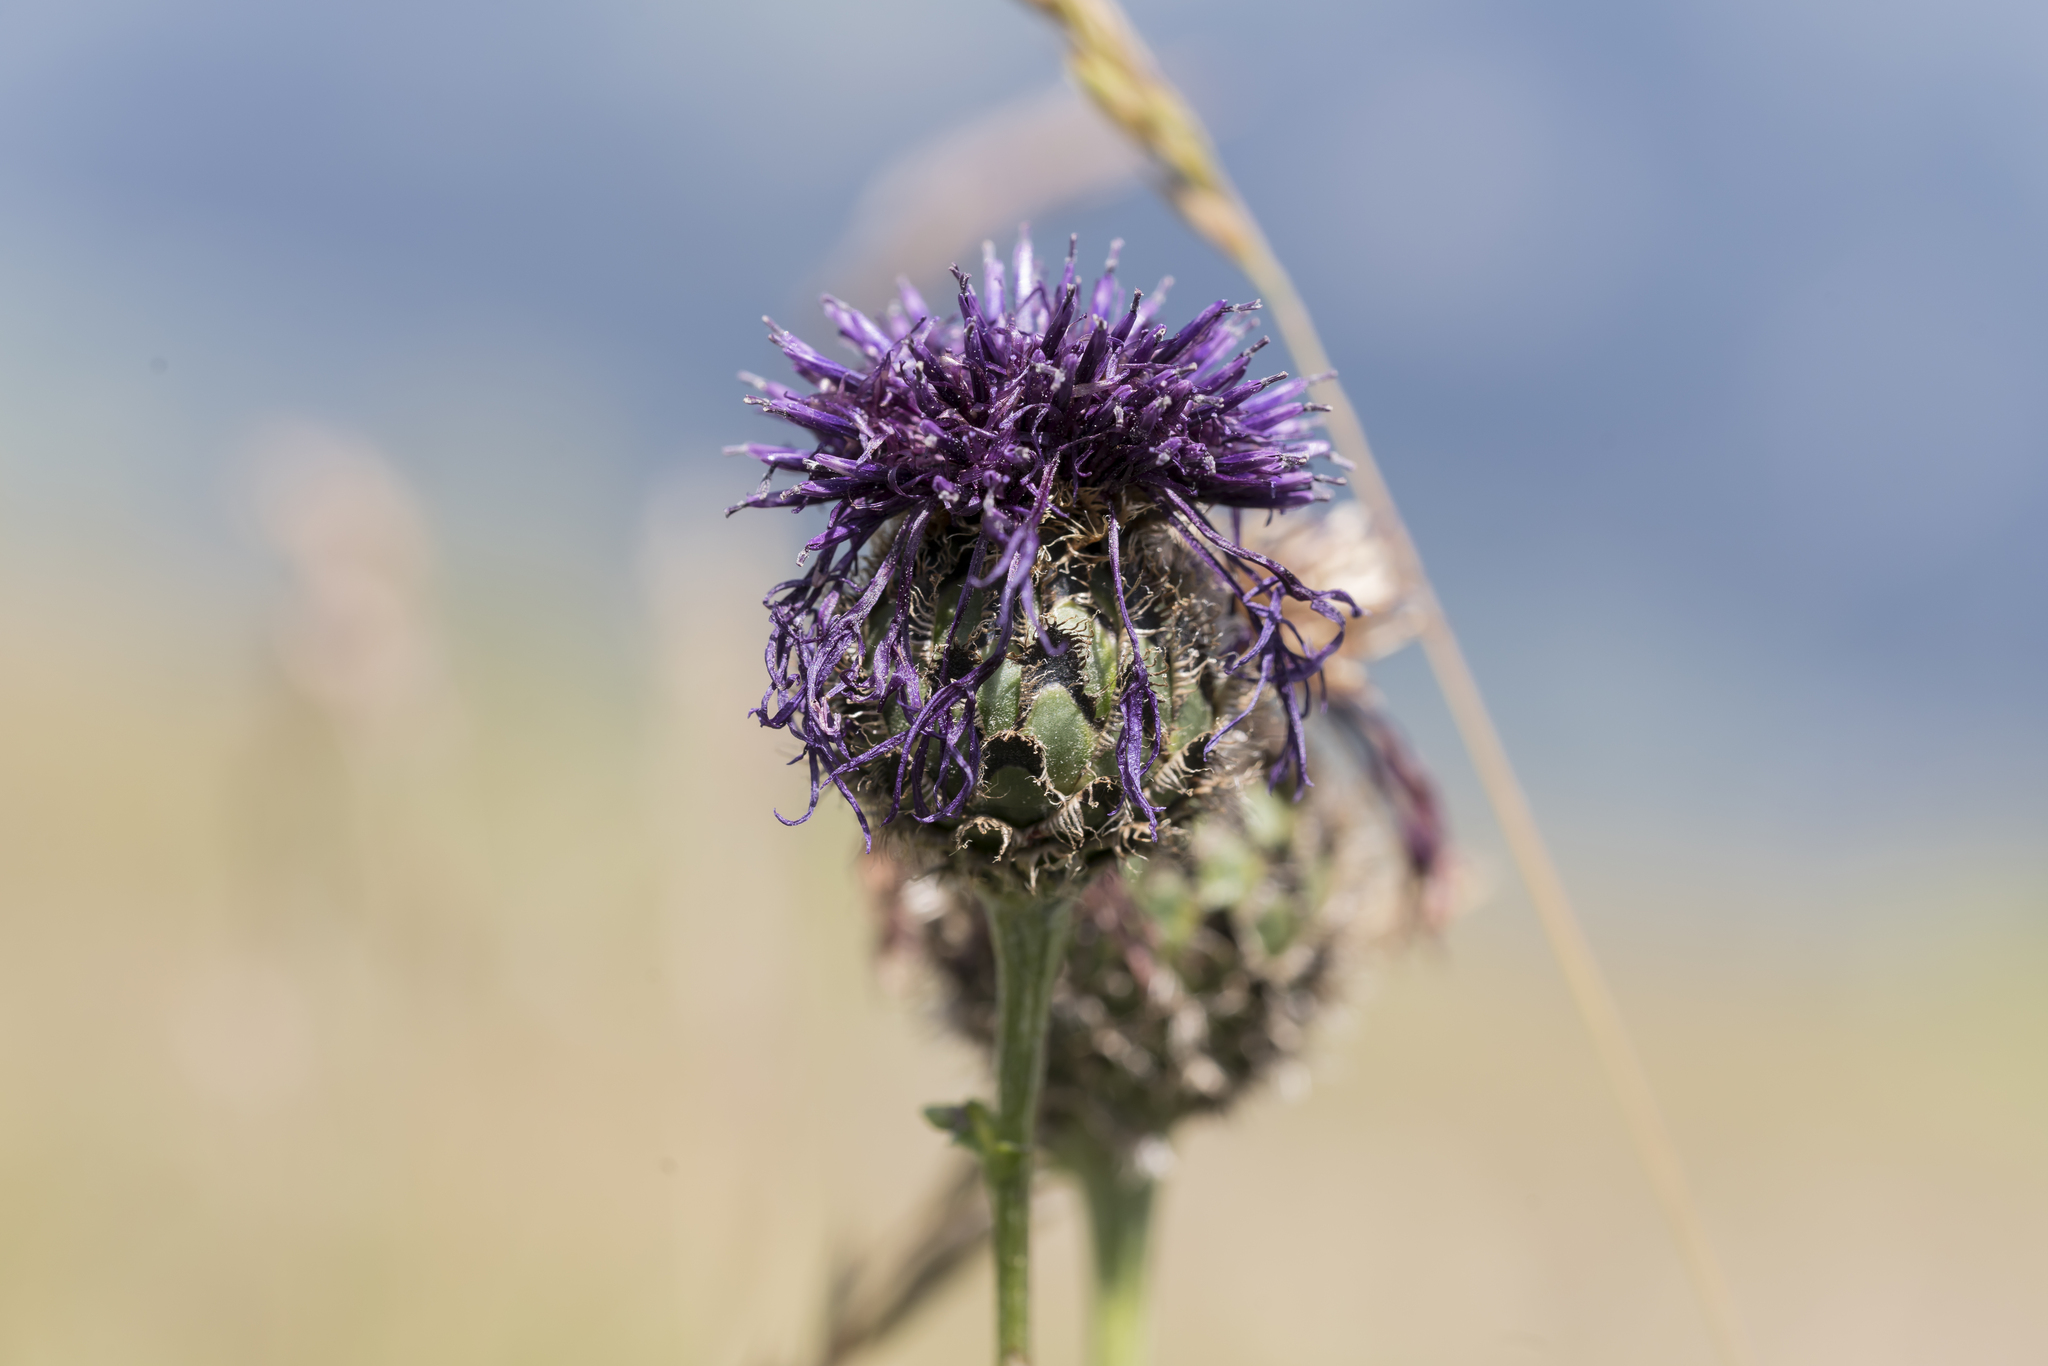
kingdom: Plantae
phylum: Tracheophyta
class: Magnoliopsida
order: Asterales
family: Asteraceae
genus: Centaurea
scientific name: Centaurea scabiosa
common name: Greater knapweed
